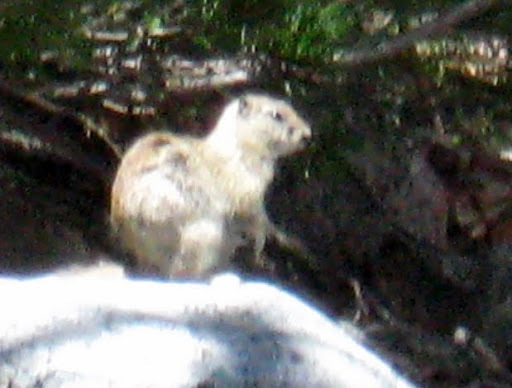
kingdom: Animalia
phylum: Chordata
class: Mammalia
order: Rodentia
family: Sciuridae
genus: Urocitellus
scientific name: Urocitellus beldingi
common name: Belding's ground squirrel
